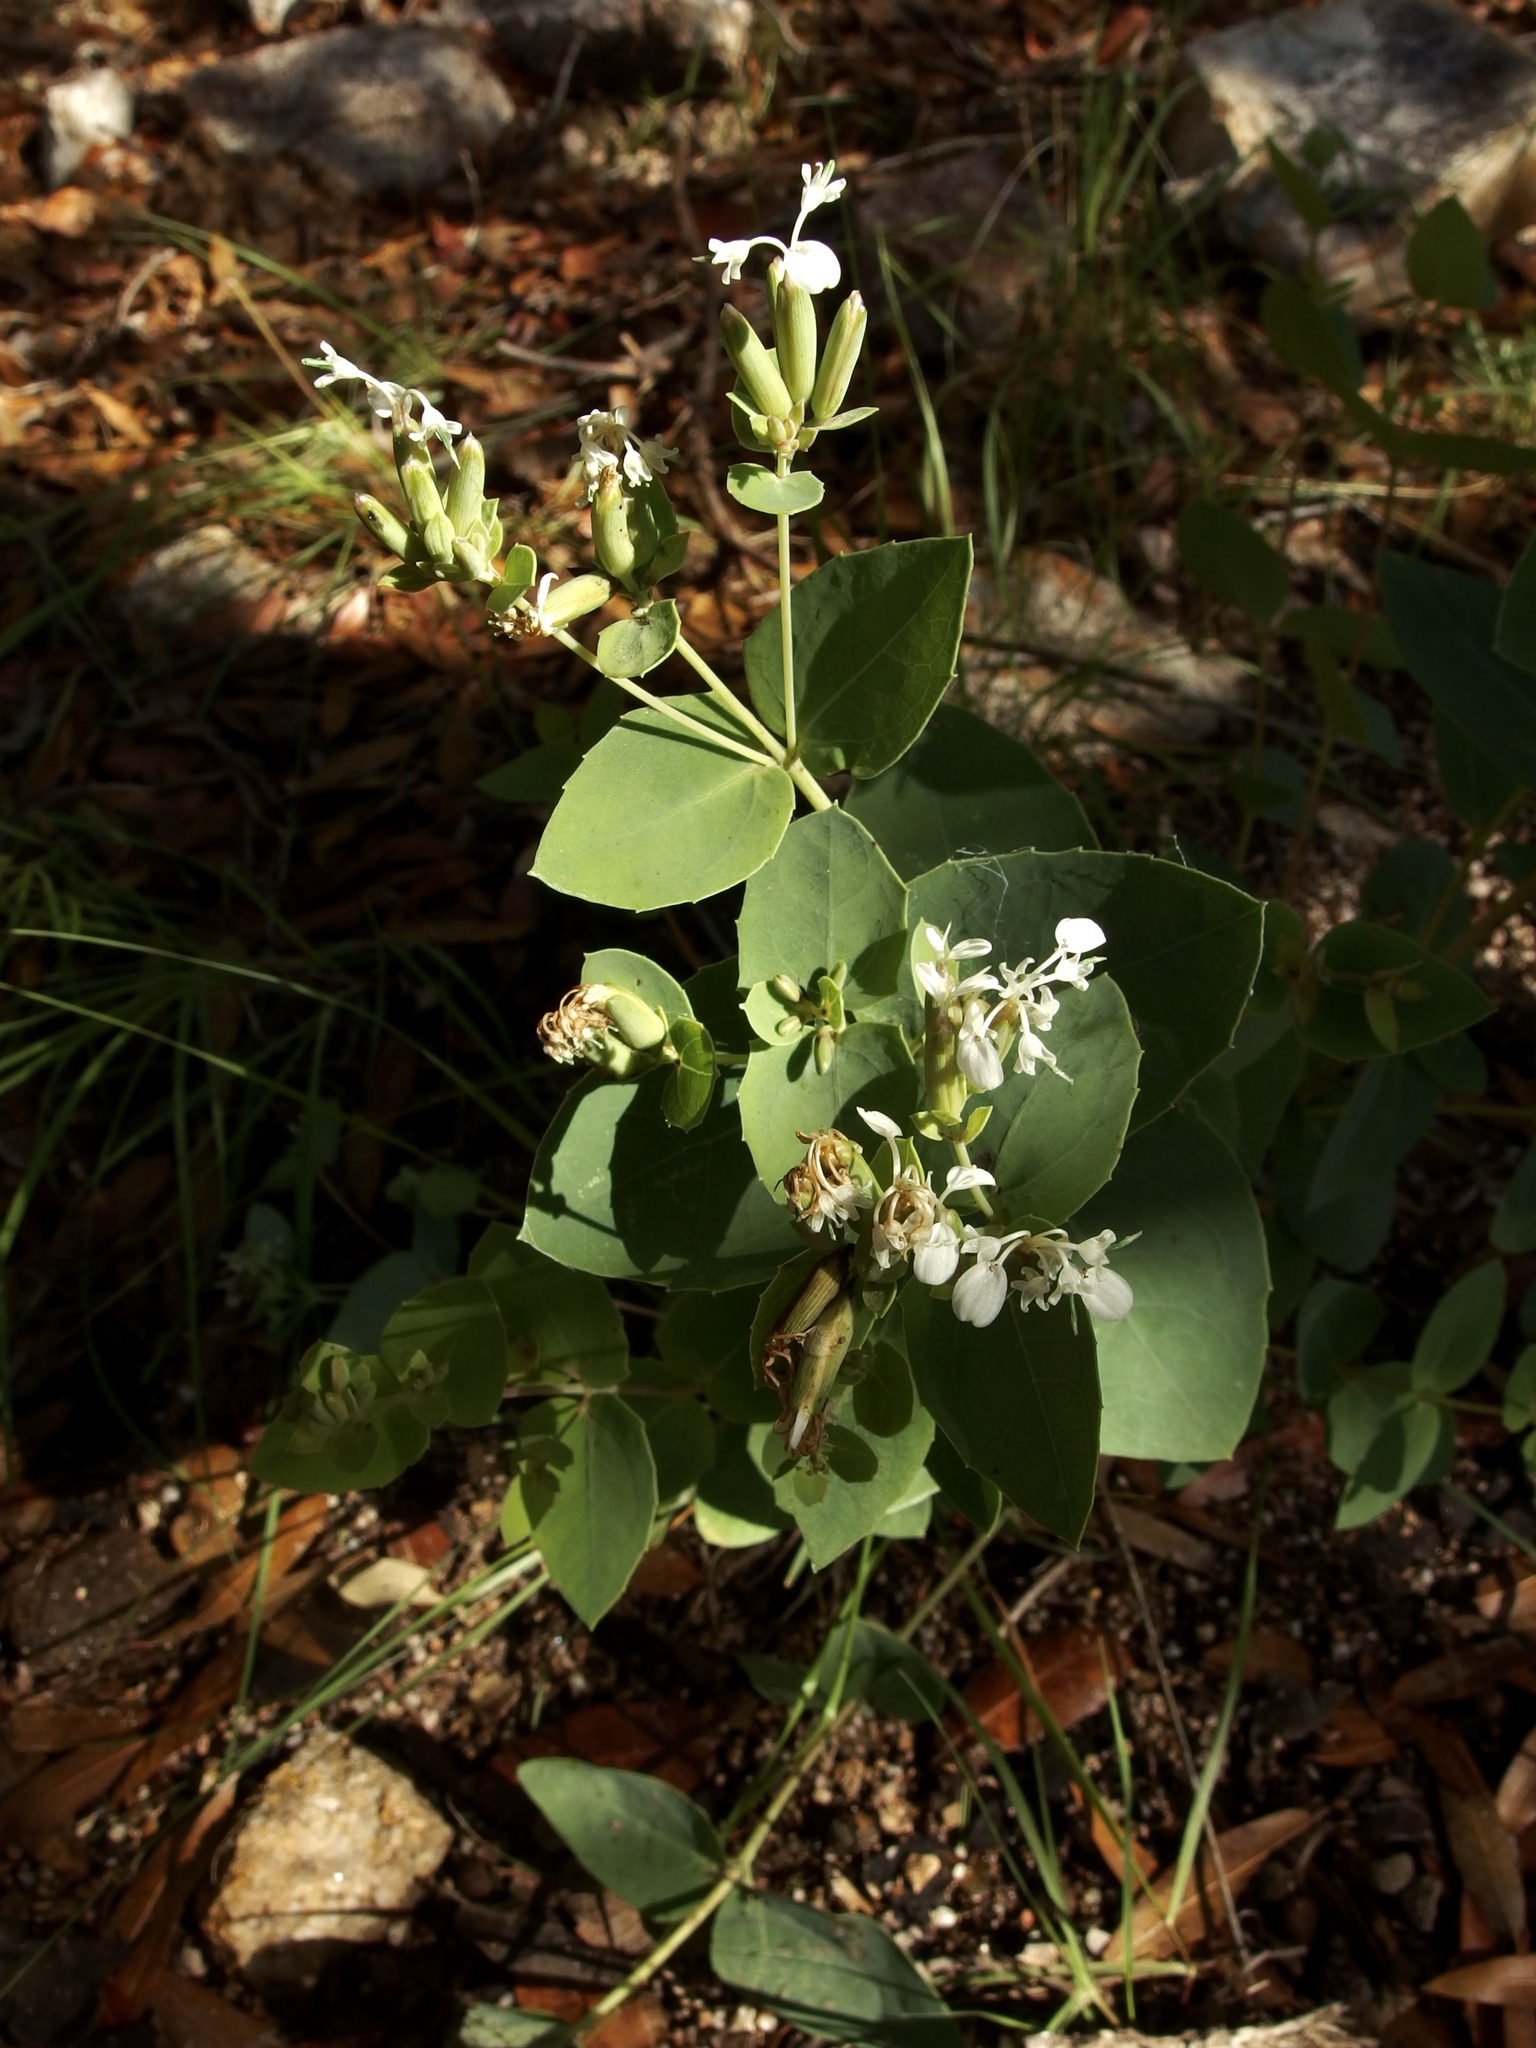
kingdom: Plantae
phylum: Tracheophyta
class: Magnoliopsida
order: Asterales
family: Asteraceae
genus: Guardiola
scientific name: Guardiola platyphylla
